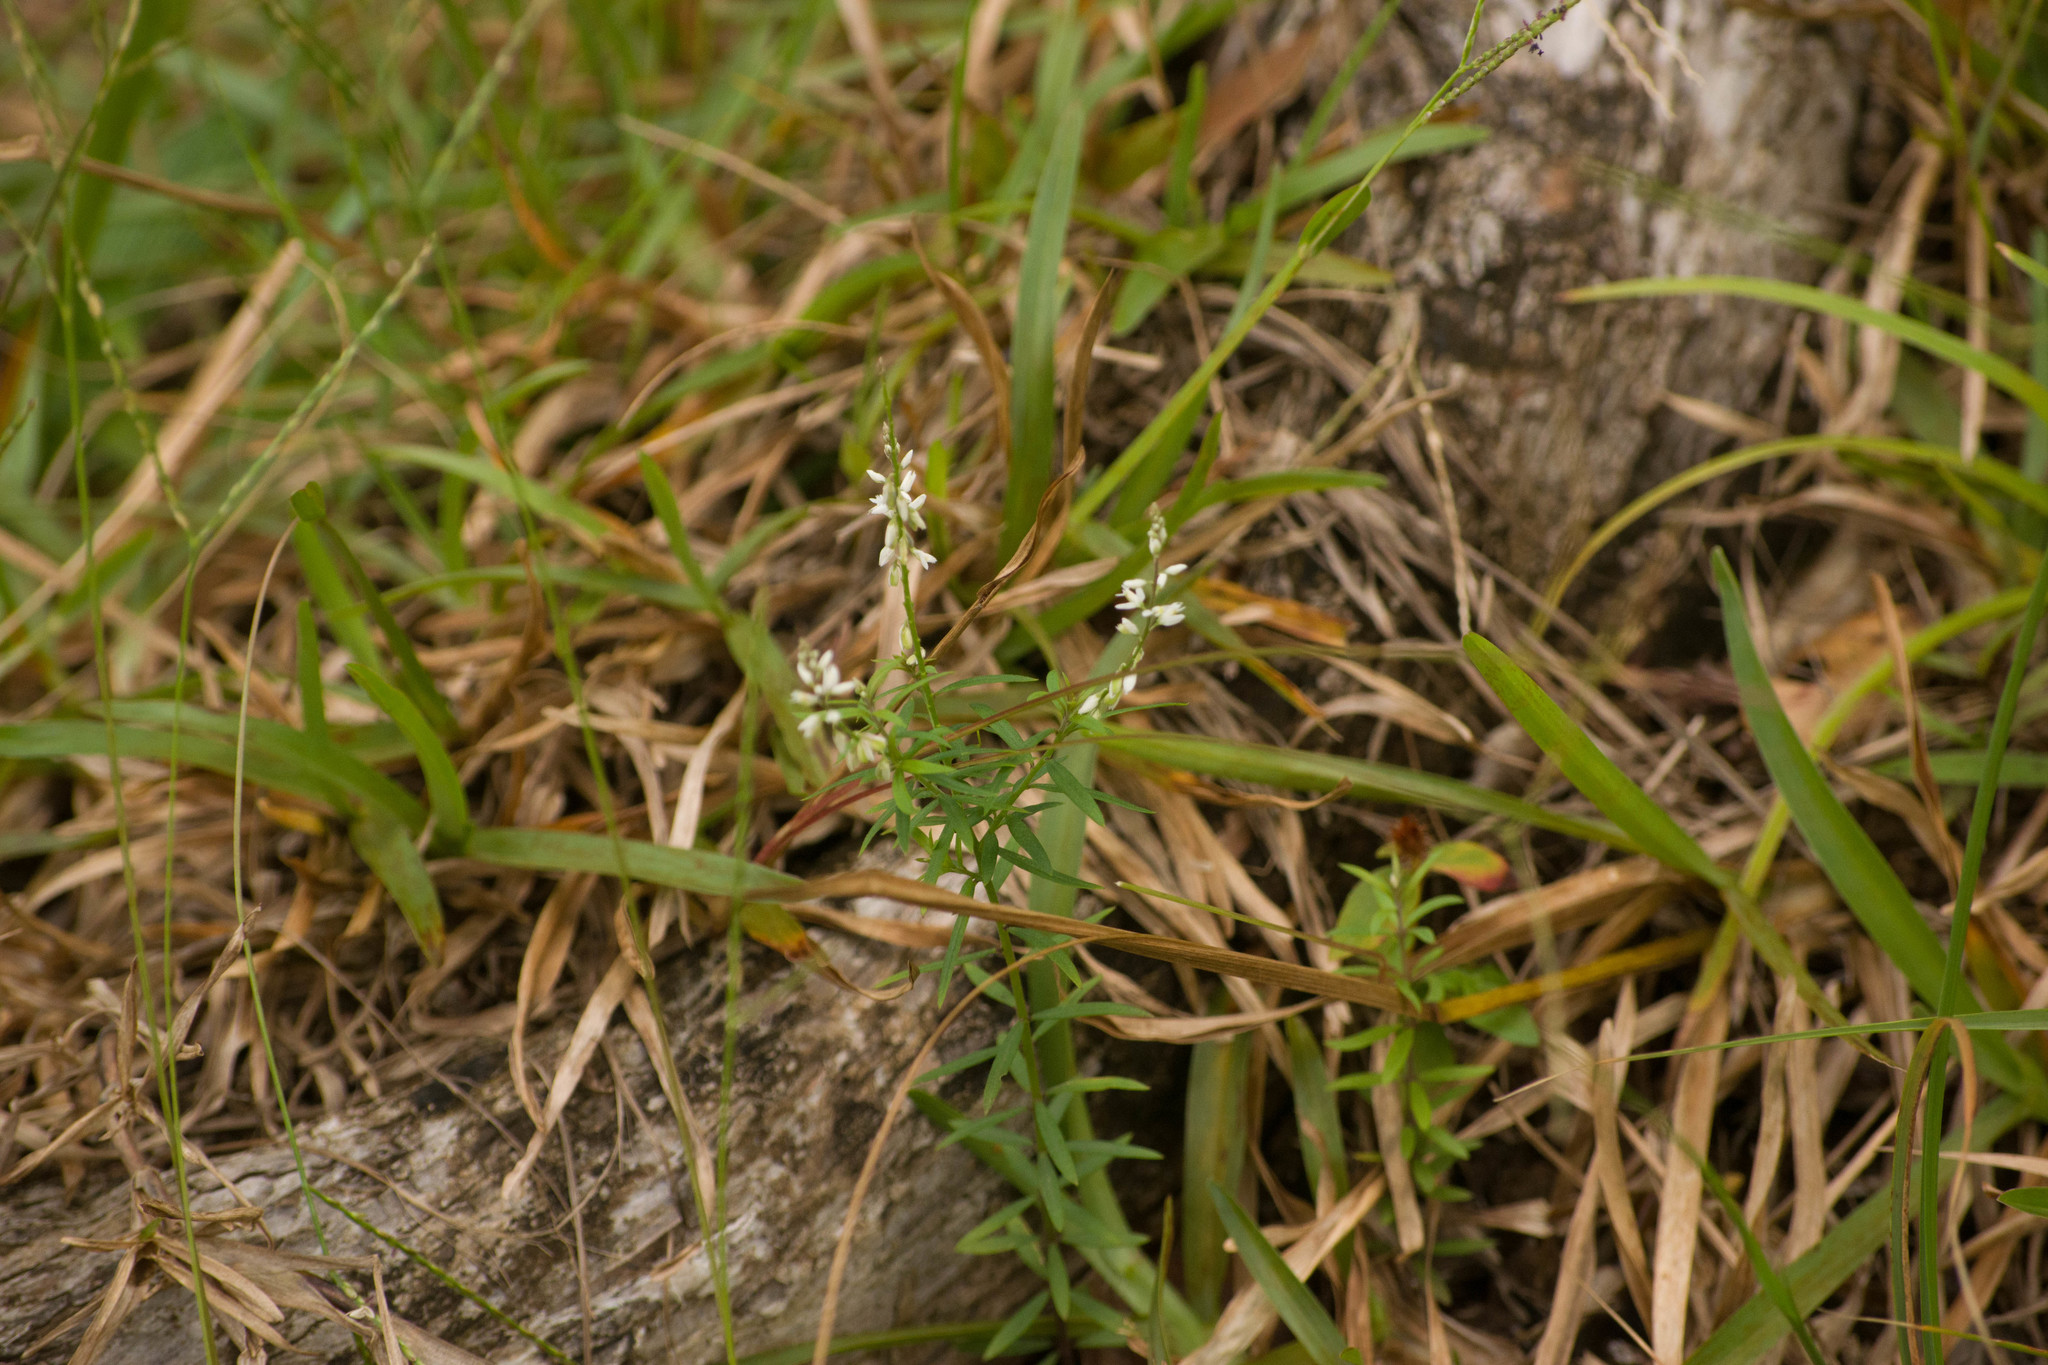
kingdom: Plantae
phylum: Tracheophyta
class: Magnoliopsida
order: Fabales
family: Polygalaceae
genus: Polygala
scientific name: Polygala paniculata
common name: Orosne
